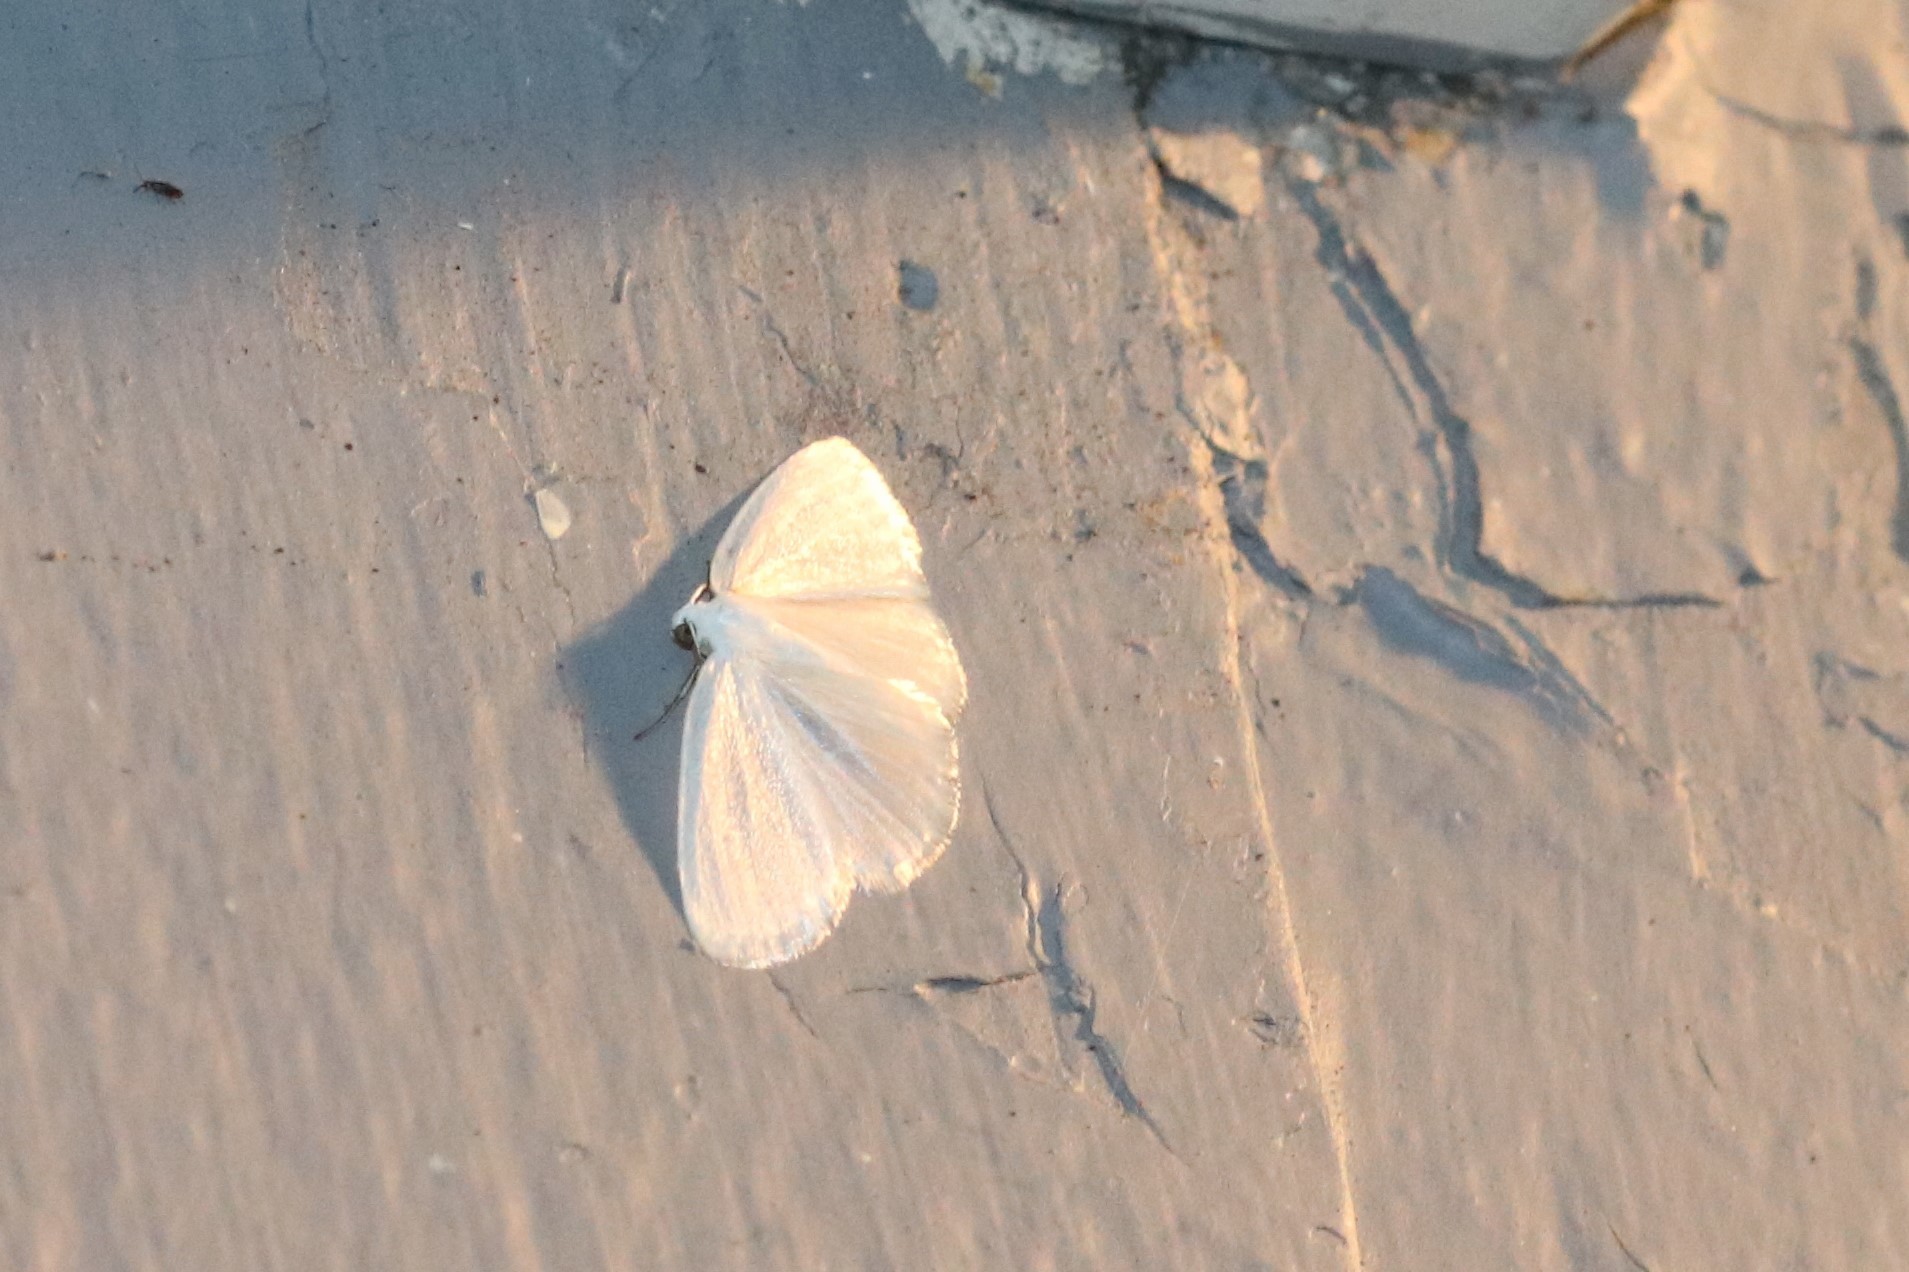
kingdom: Animalia
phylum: Arthropoda
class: Insecta
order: Lepidoptera
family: Geometridae
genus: Lomographa
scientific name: Lomographa vestaliata
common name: White spring moth
